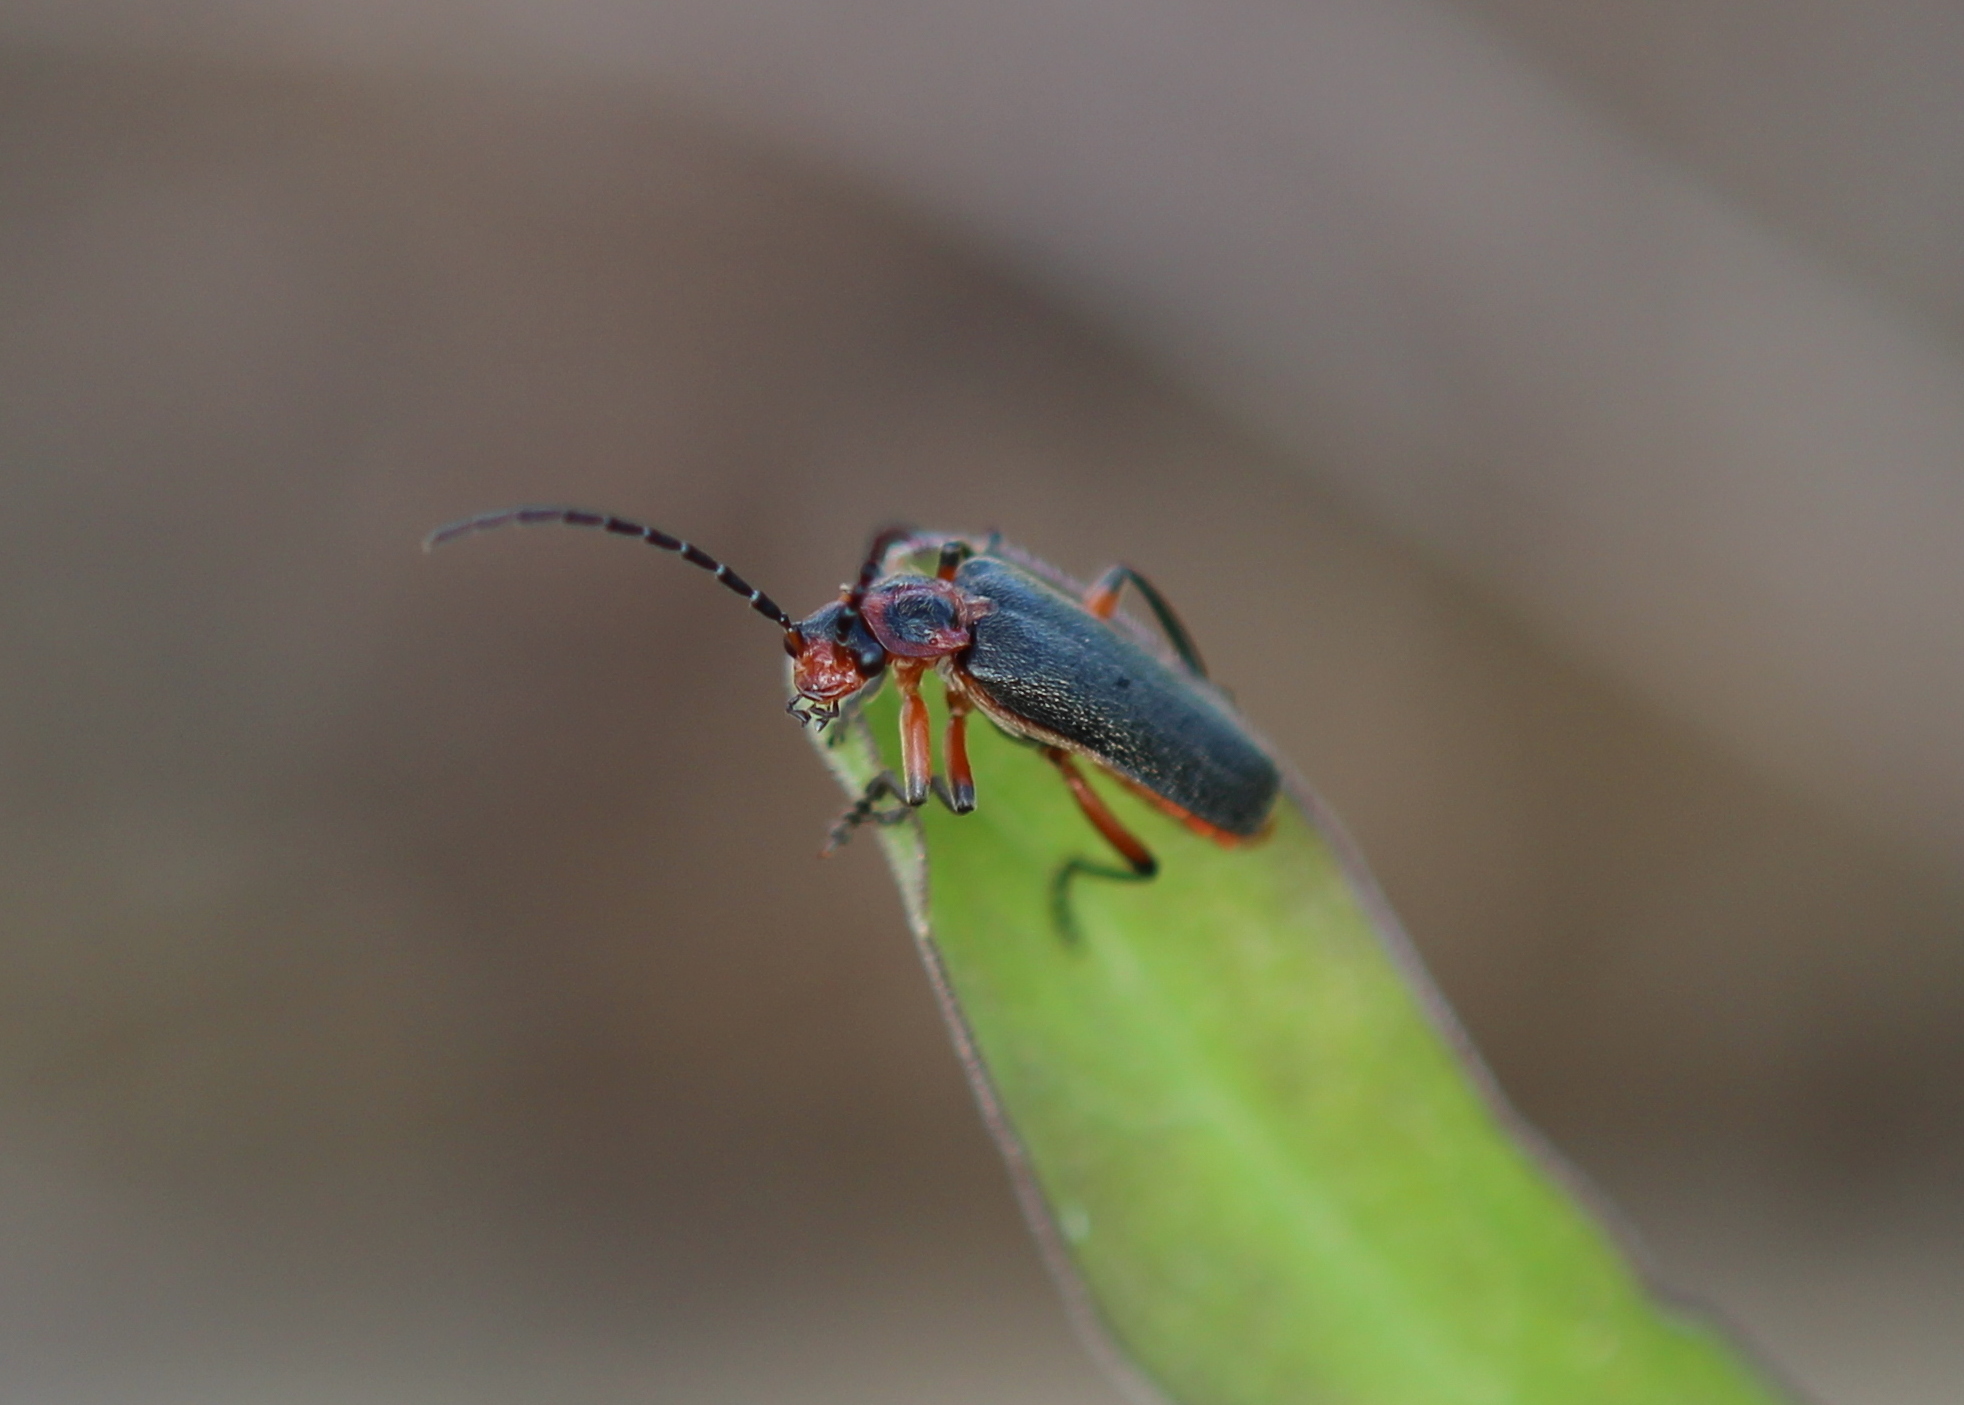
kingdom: Animalia
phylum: Arthropoda
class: Insecta
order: Coleoptera
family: Cantharidae
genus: Atalantycha
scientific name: Atalantycha bilineata
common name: Two-lined leatherwing
